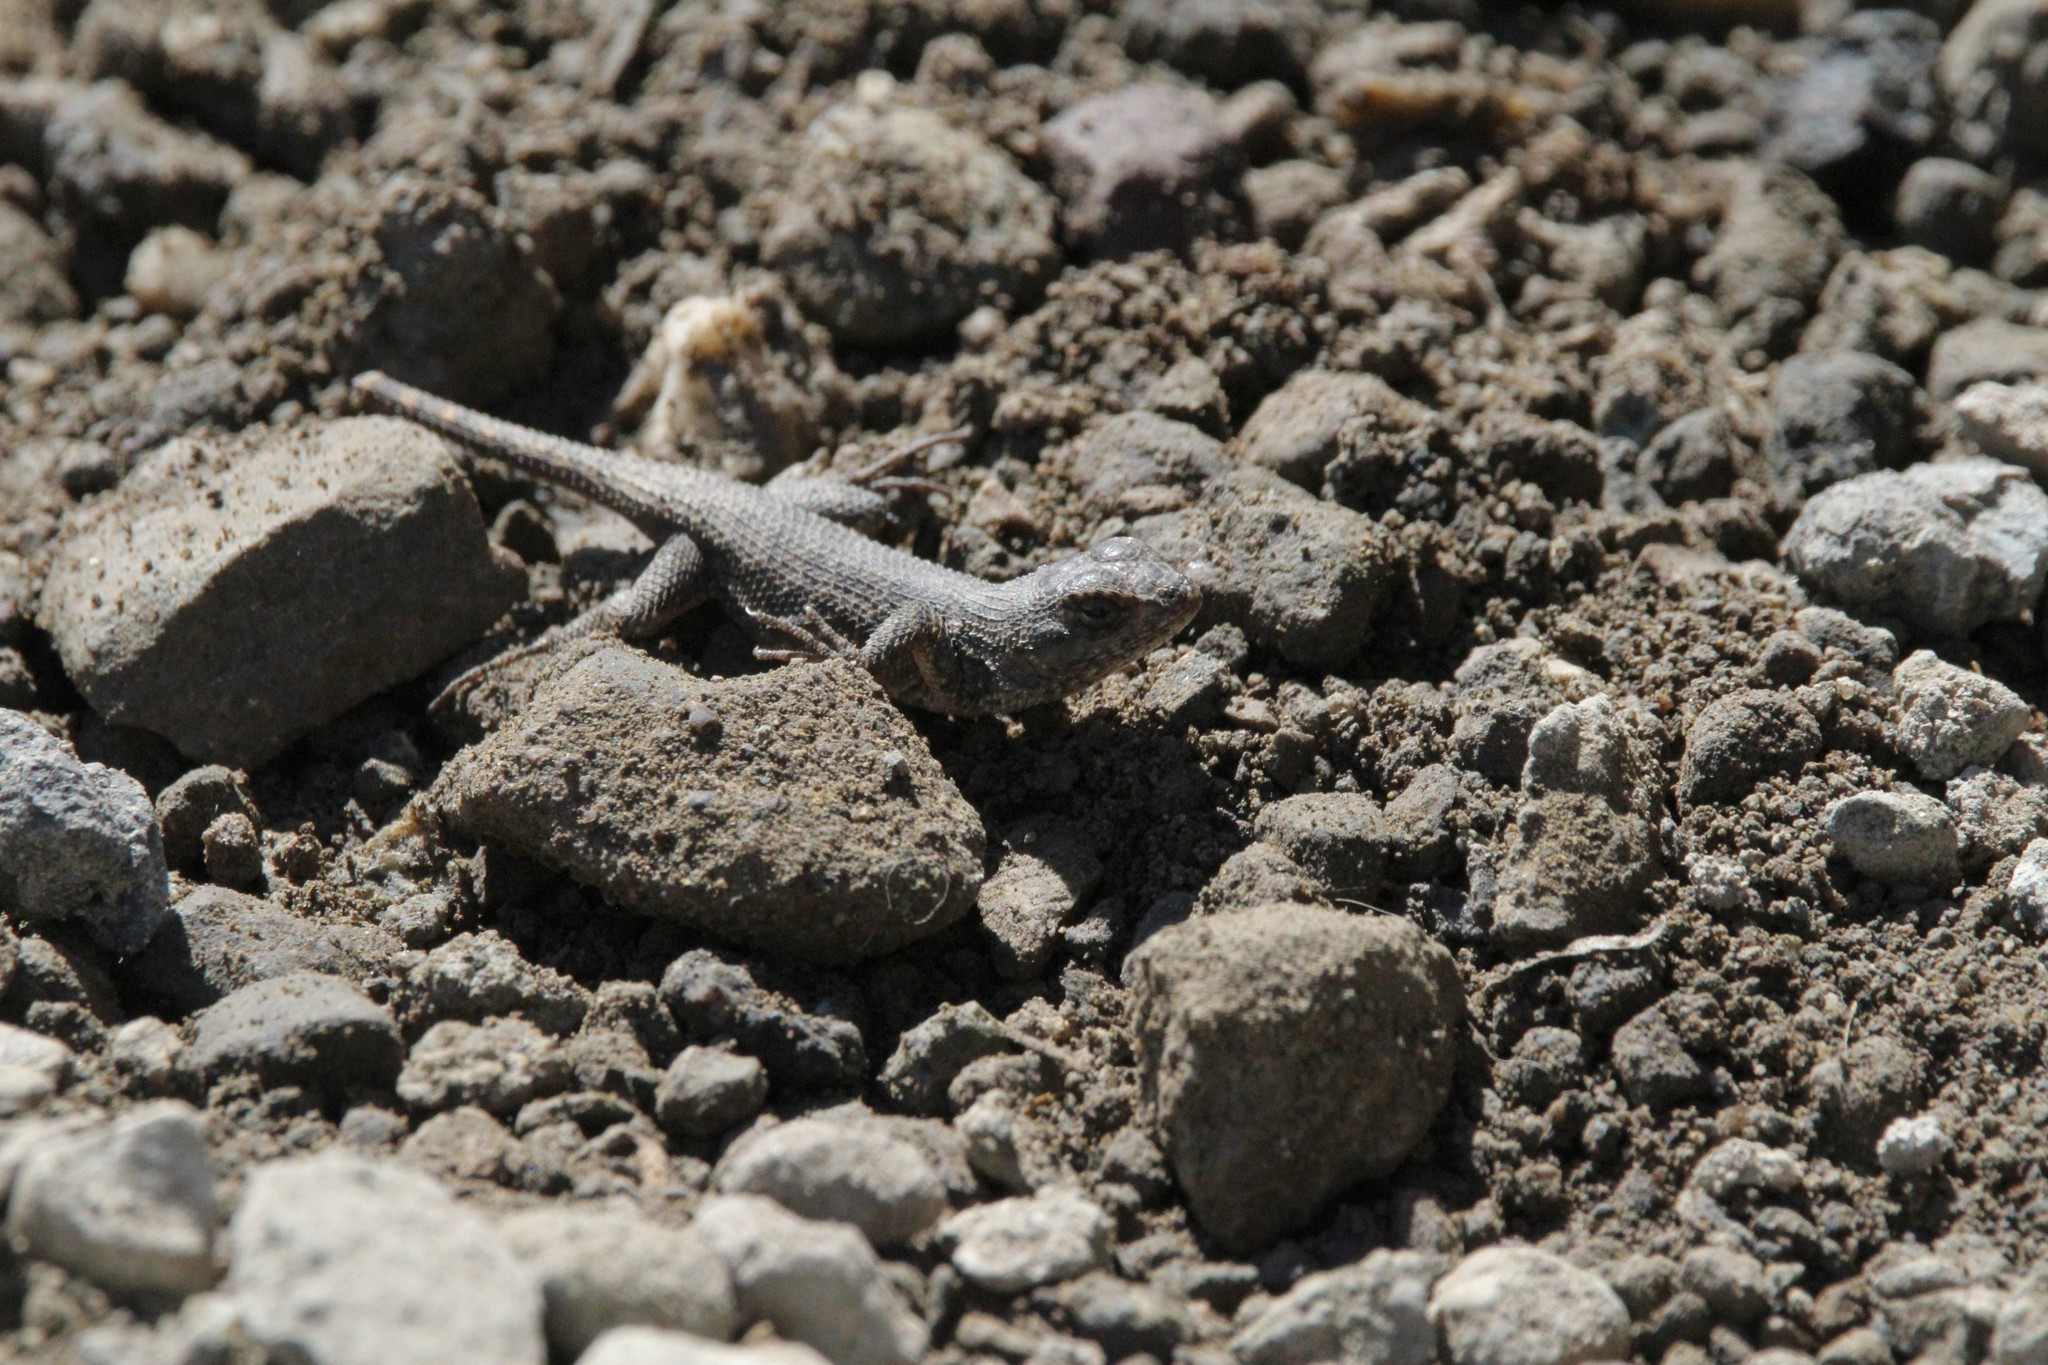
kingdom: Animalia
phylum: Chordata
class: Squamata
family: Phrynosomatidae
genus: Sceloporus
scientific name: Sceloporus occidentalis
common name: Western fence lizard
